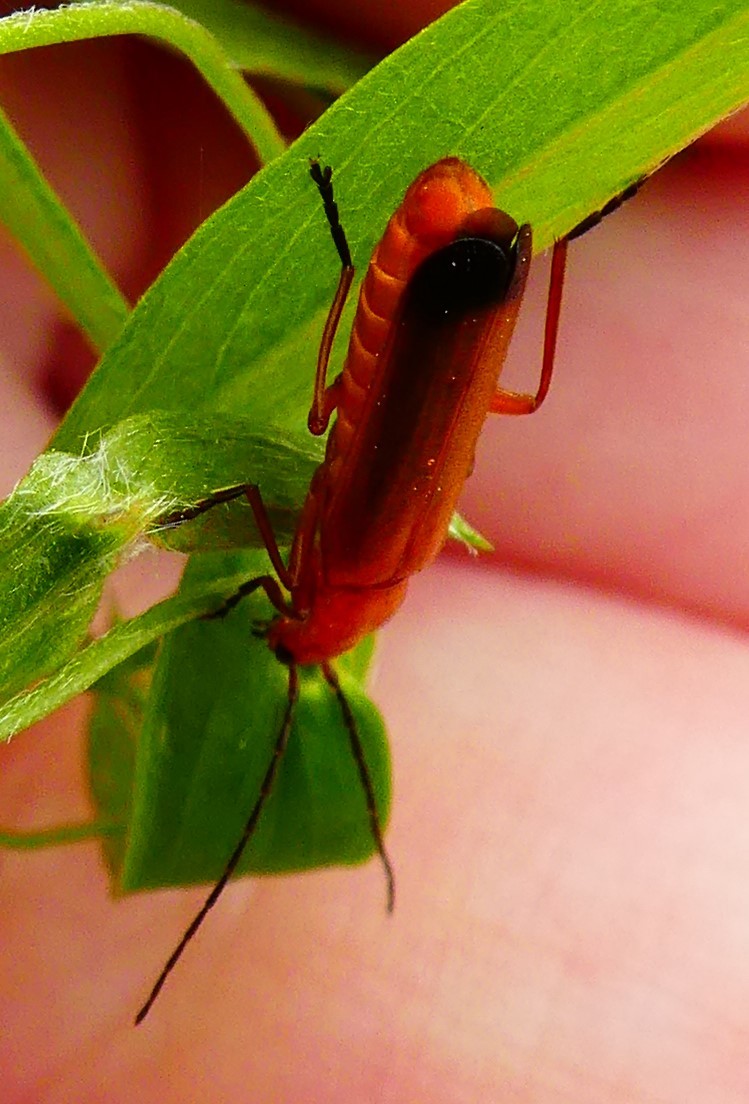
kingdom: Animalia
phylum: Arthropoda
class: Insecta
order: Coleoptera
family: Cantharidae
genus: Rhagonycha
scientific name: Rhagonycha fulva
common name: Common red soldier beetle
